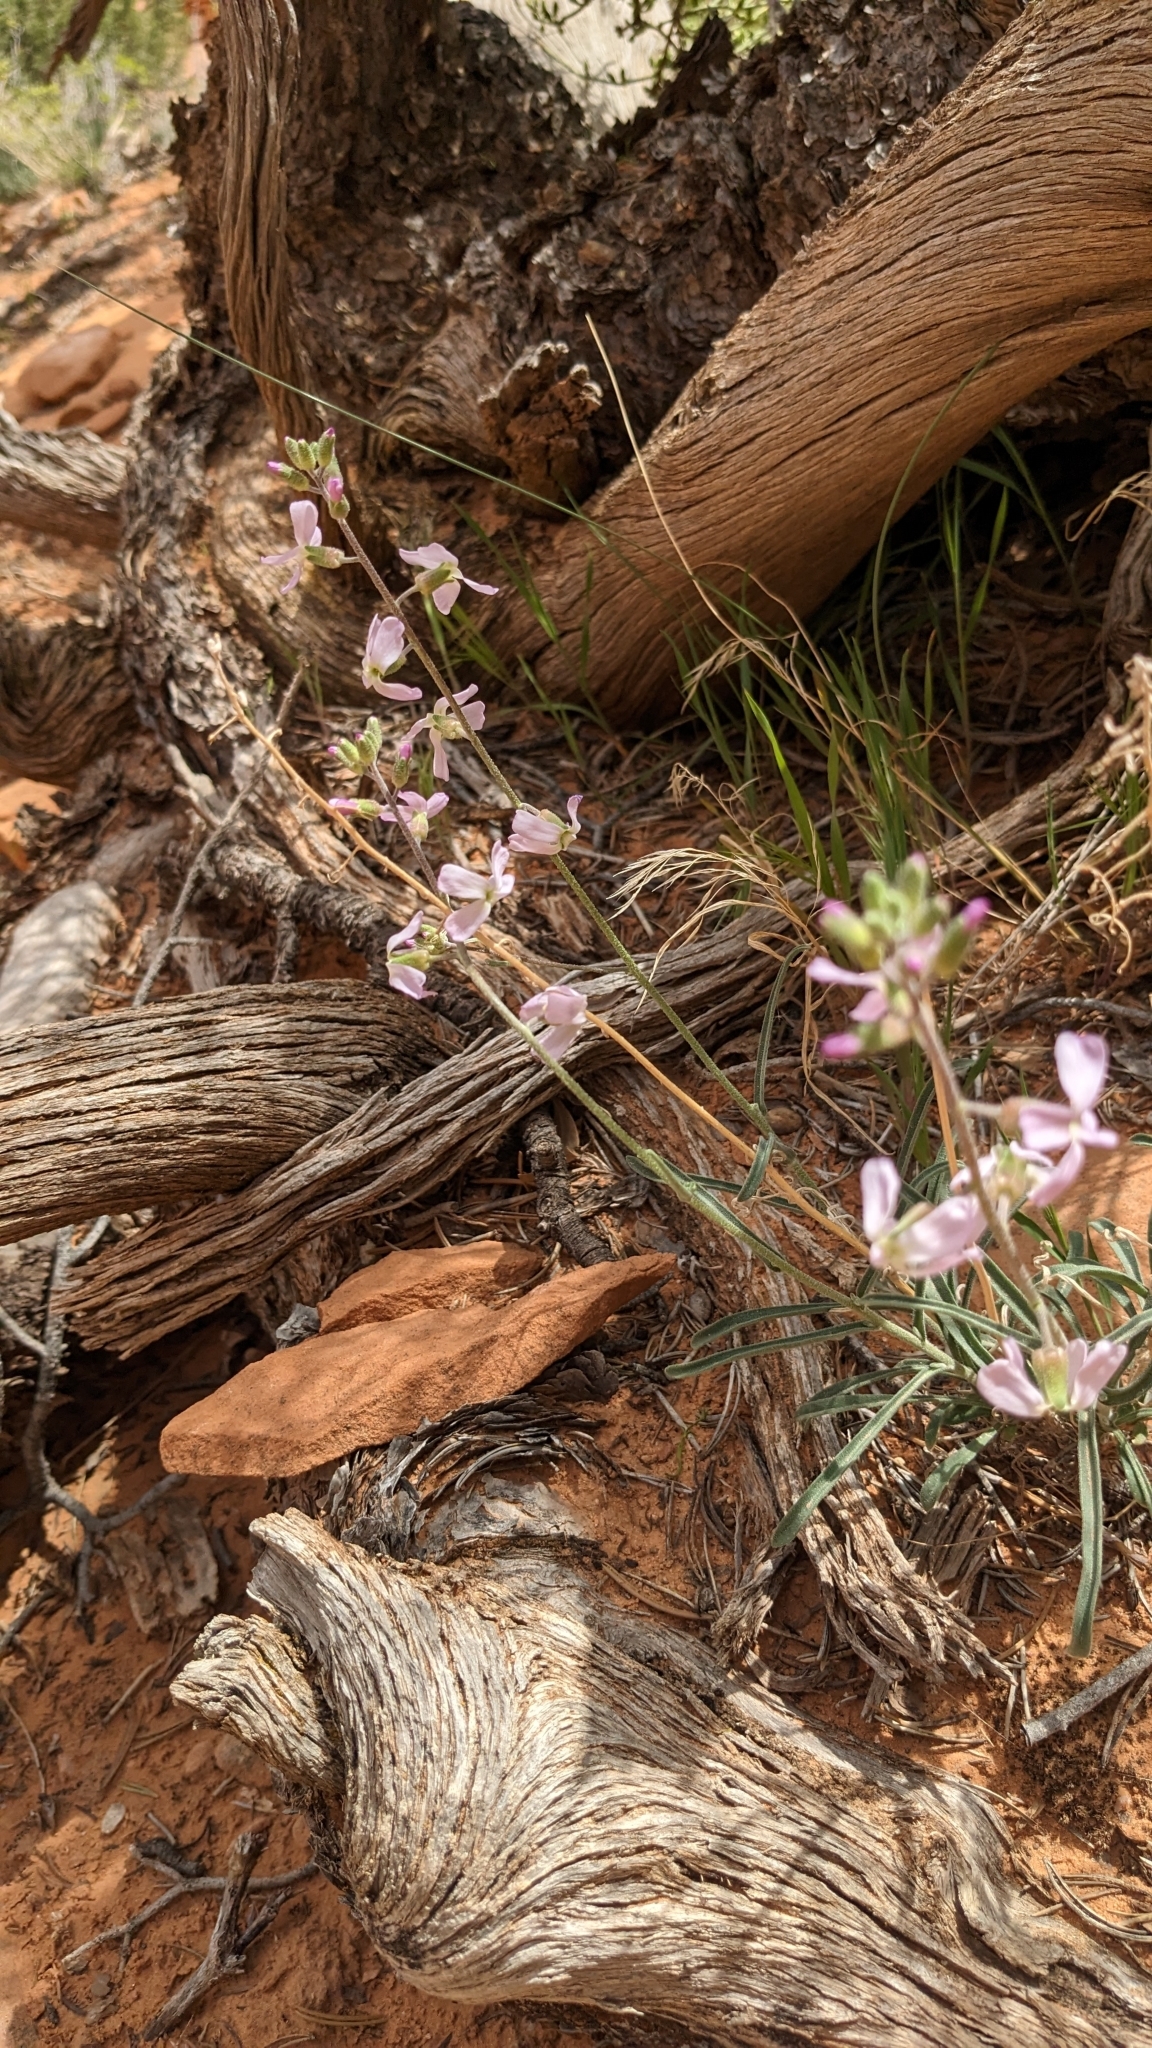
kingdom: Plantae
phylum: Tracheophyta
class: Magnoliopsida
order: Brassicales
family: Brassicaceae
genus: Boechera
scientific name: Boechera formosa
